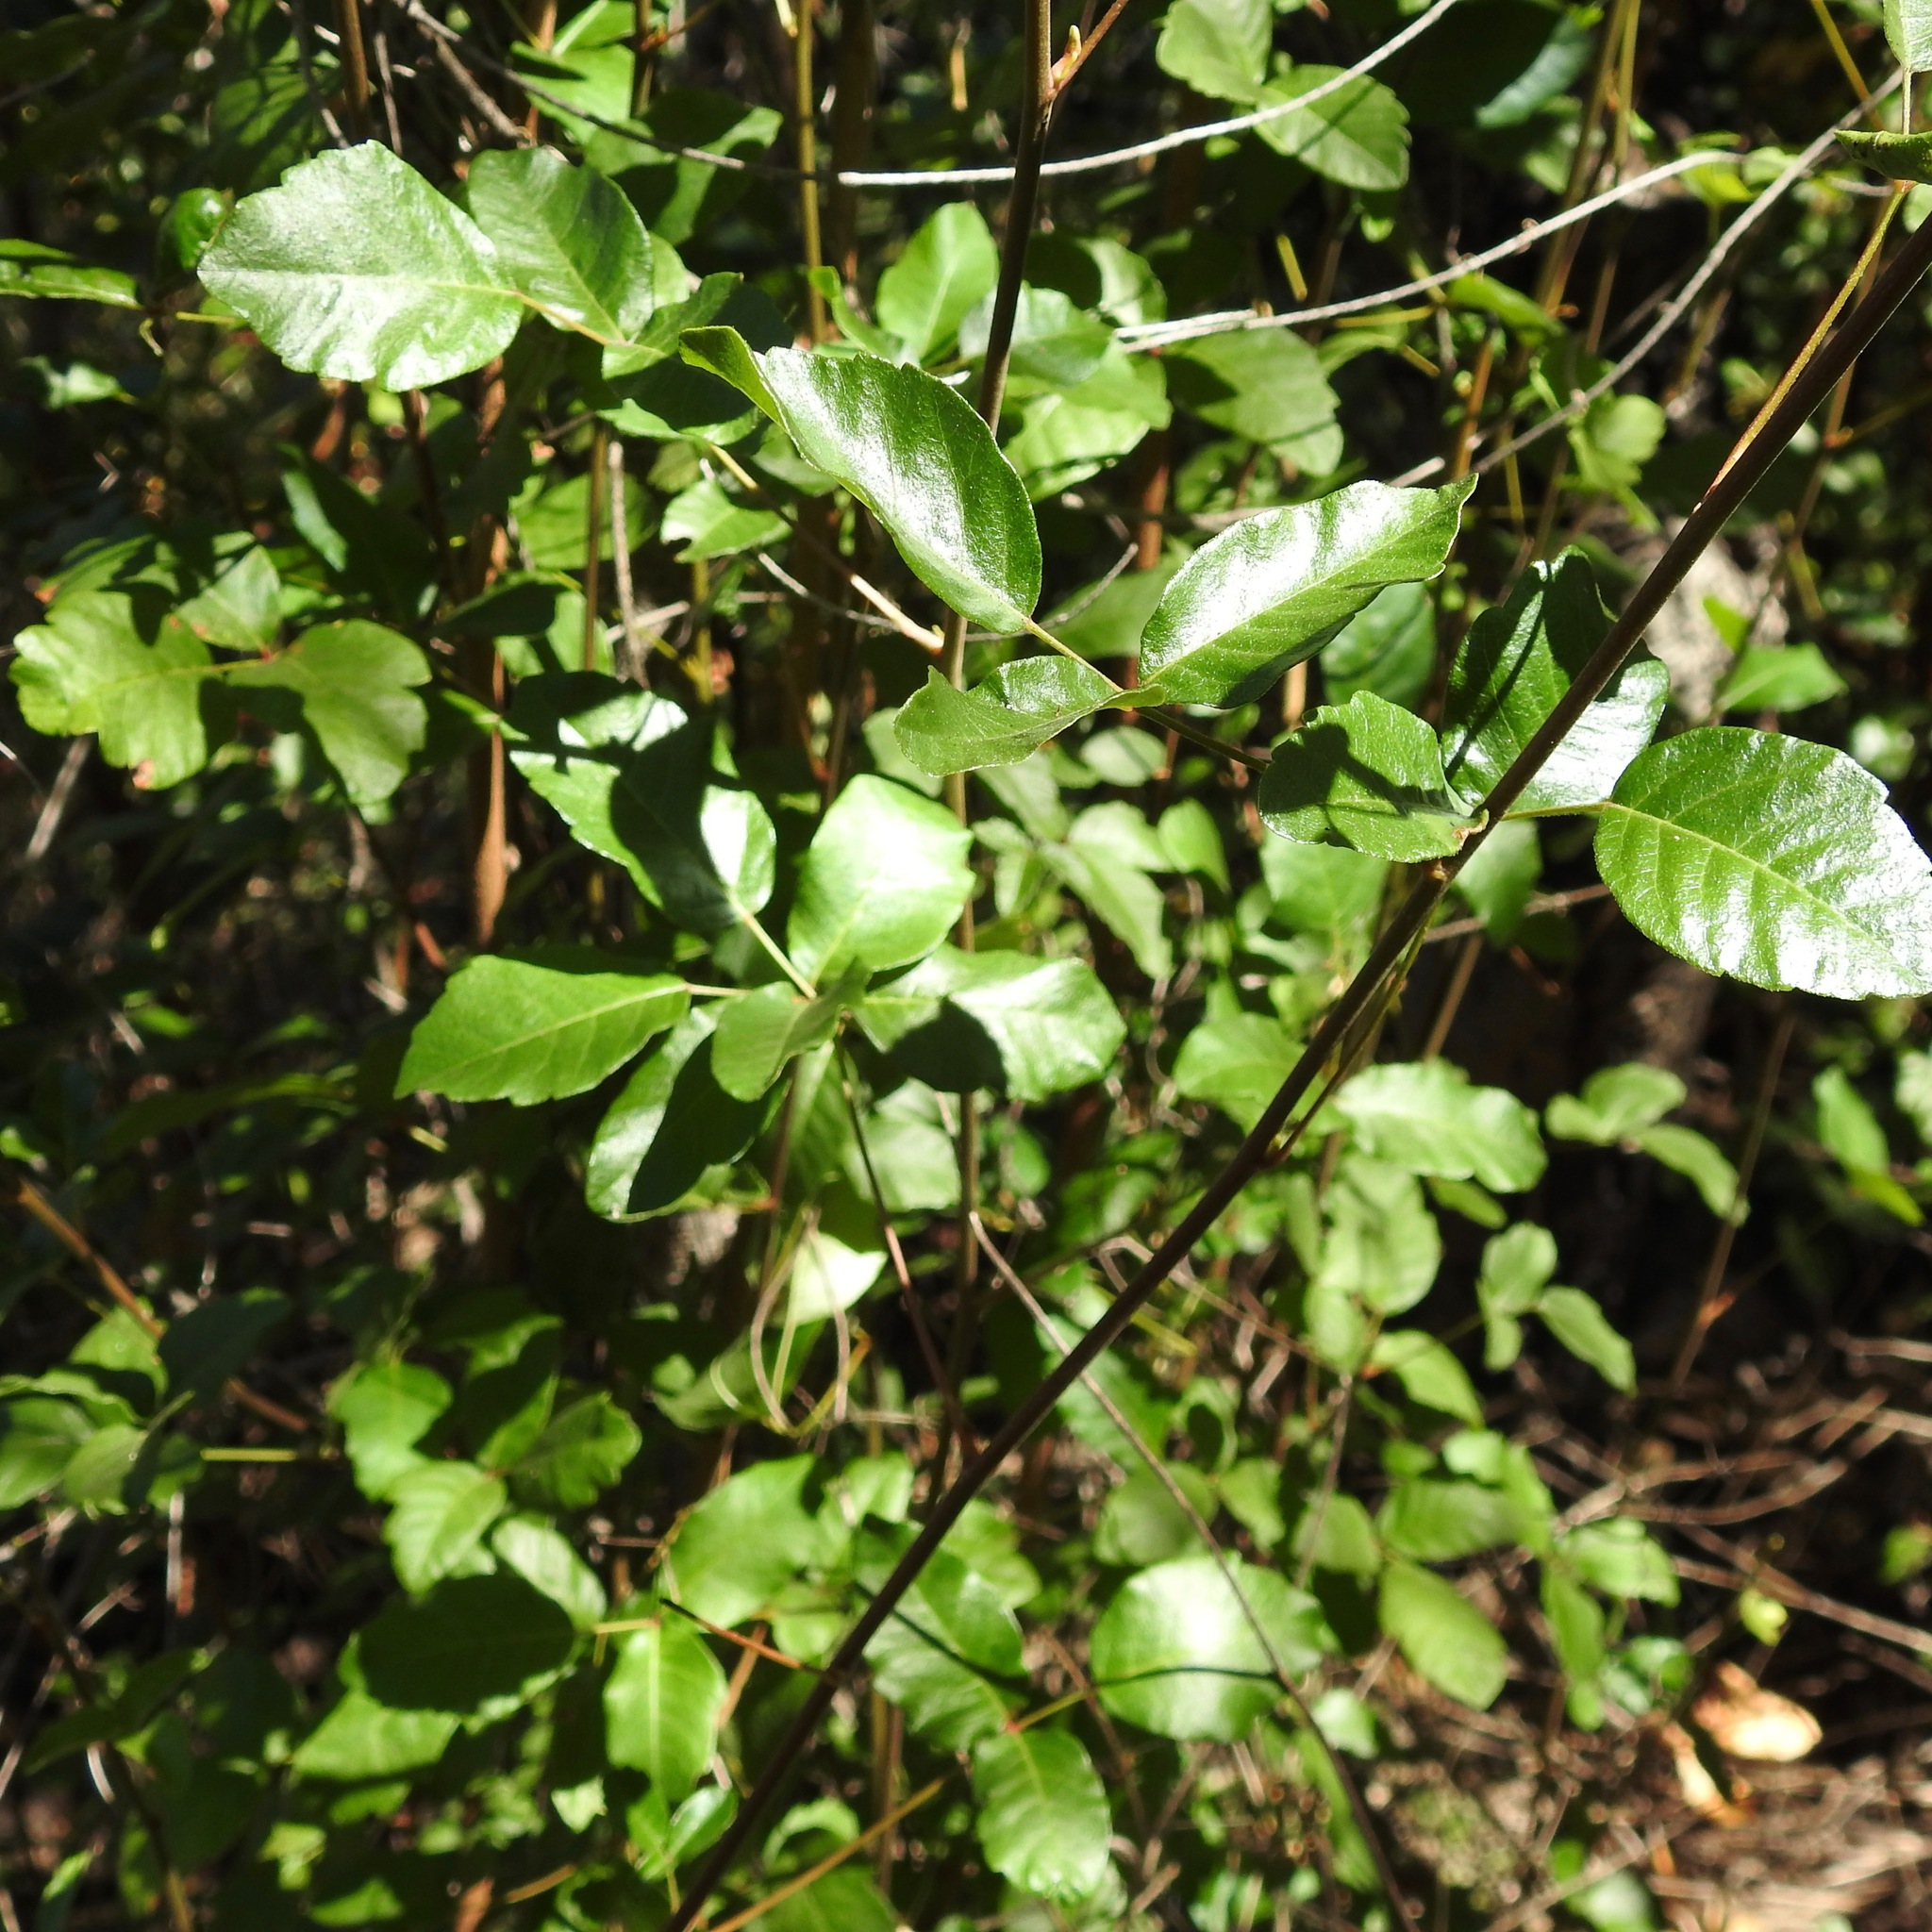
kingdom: Plantae
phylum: Tracheophyta
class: Magnoliopsida
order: Sapindales
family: Anacardiaceae
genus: Toxicodendron
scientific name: Toxicodendron diversilobum
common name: Pacific poison-oak
